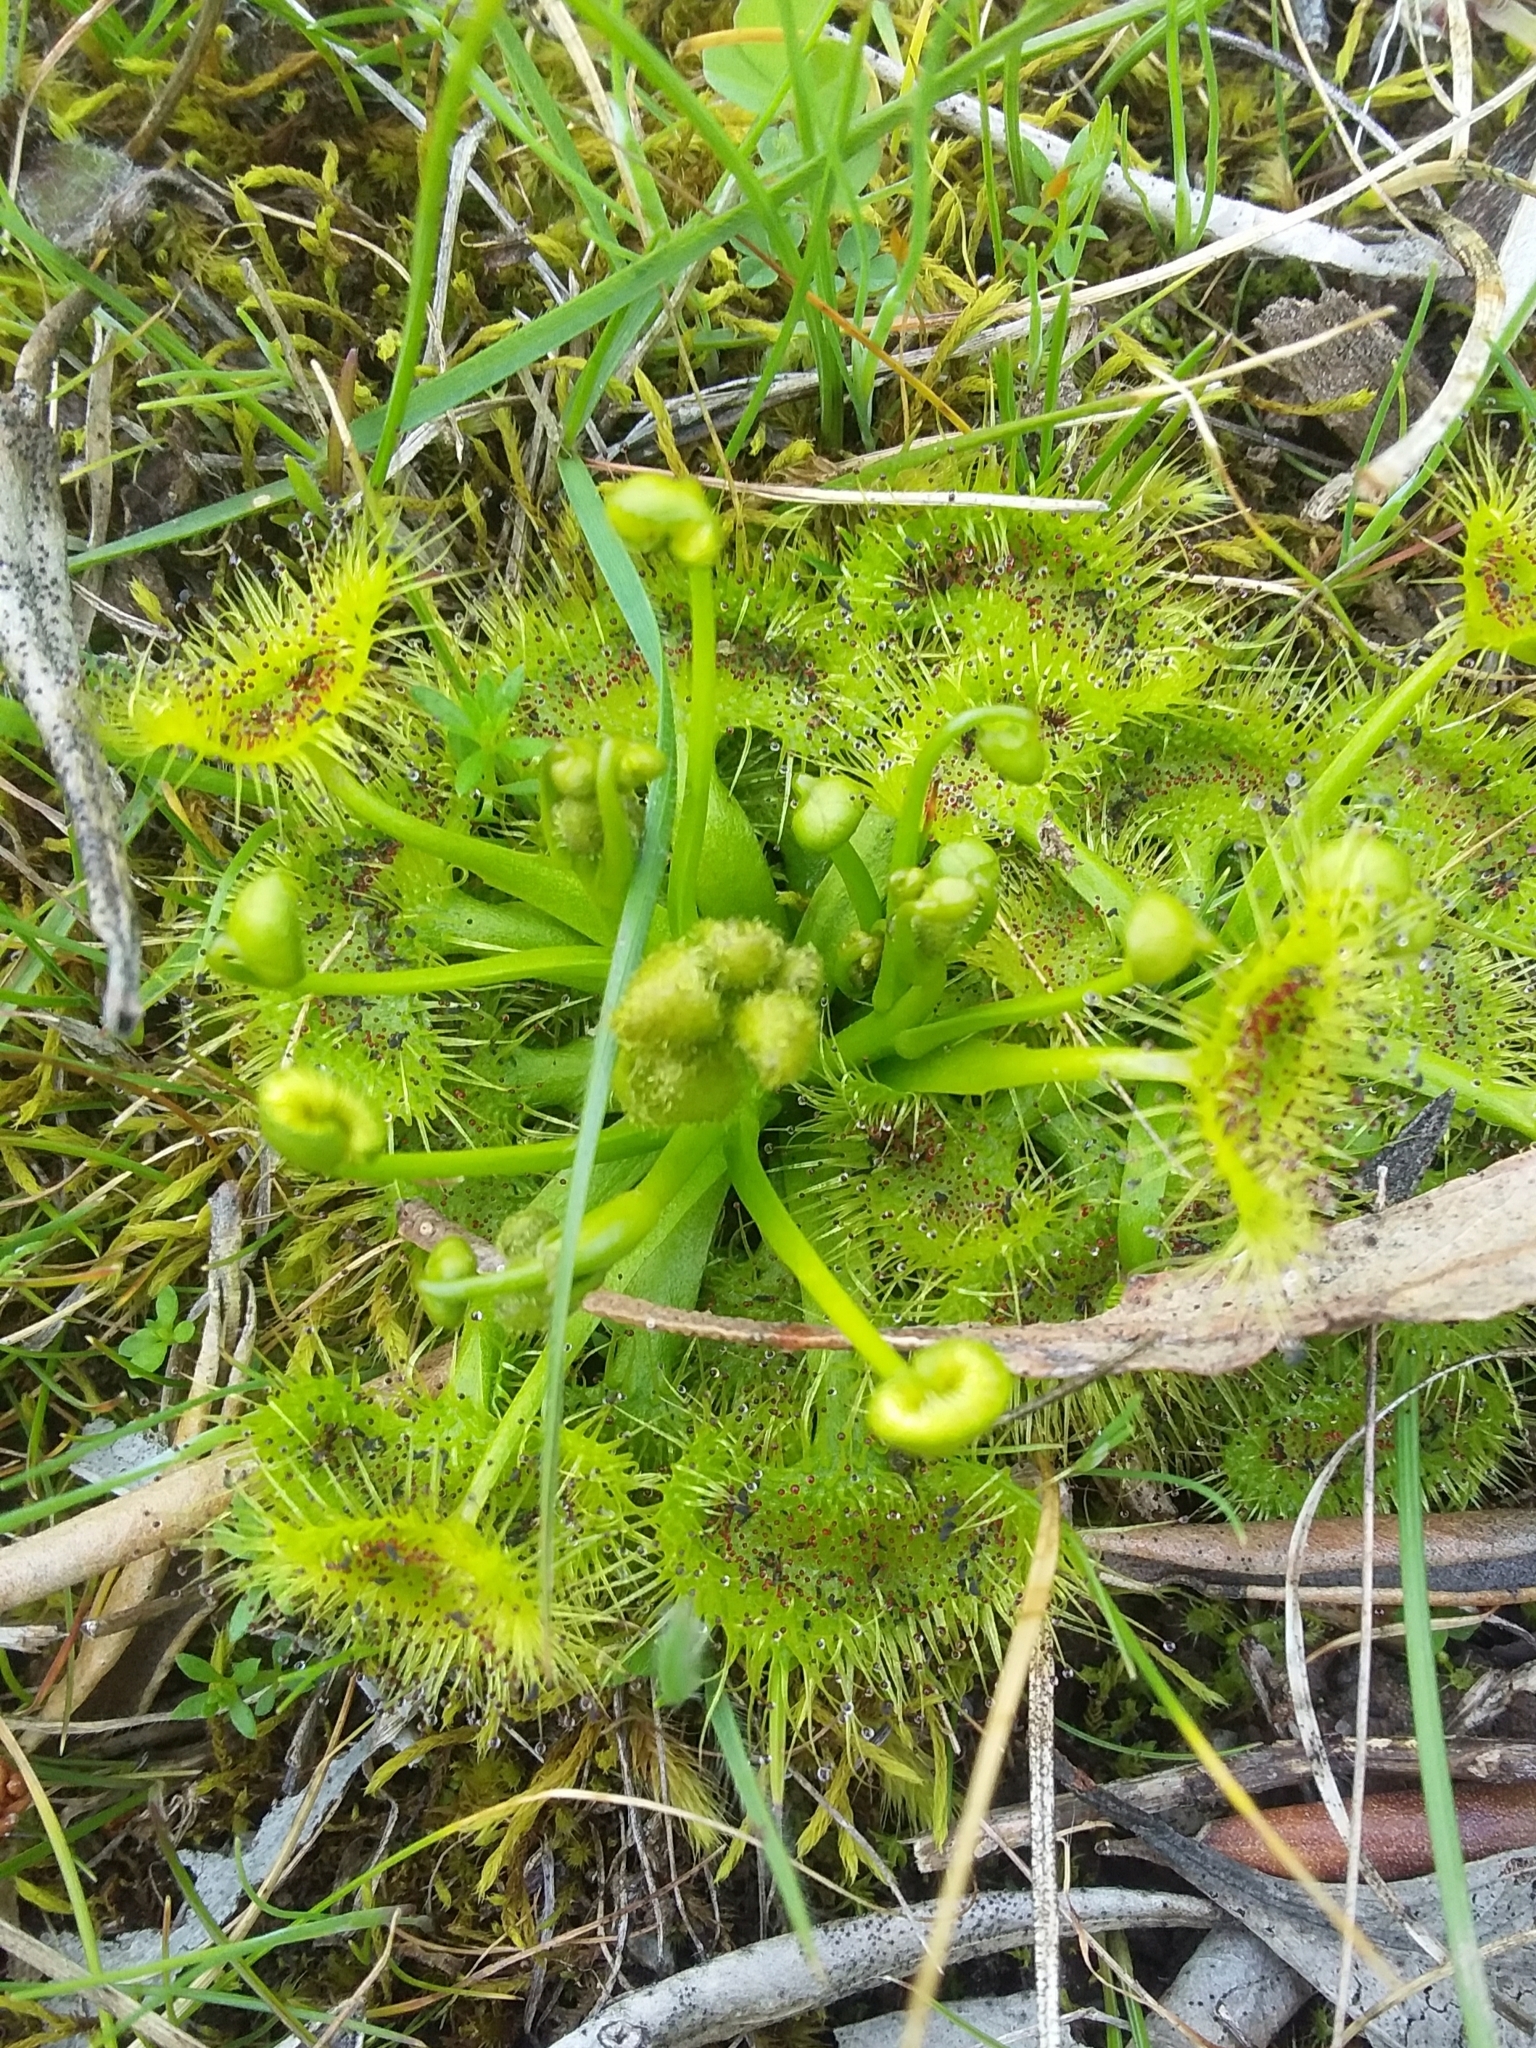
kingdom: Plantae
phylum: Tracheophyta
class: Magnoliopsida
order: Caryophyllales
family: Droseraceae
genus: Drosera
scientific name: Drosera hookeri
